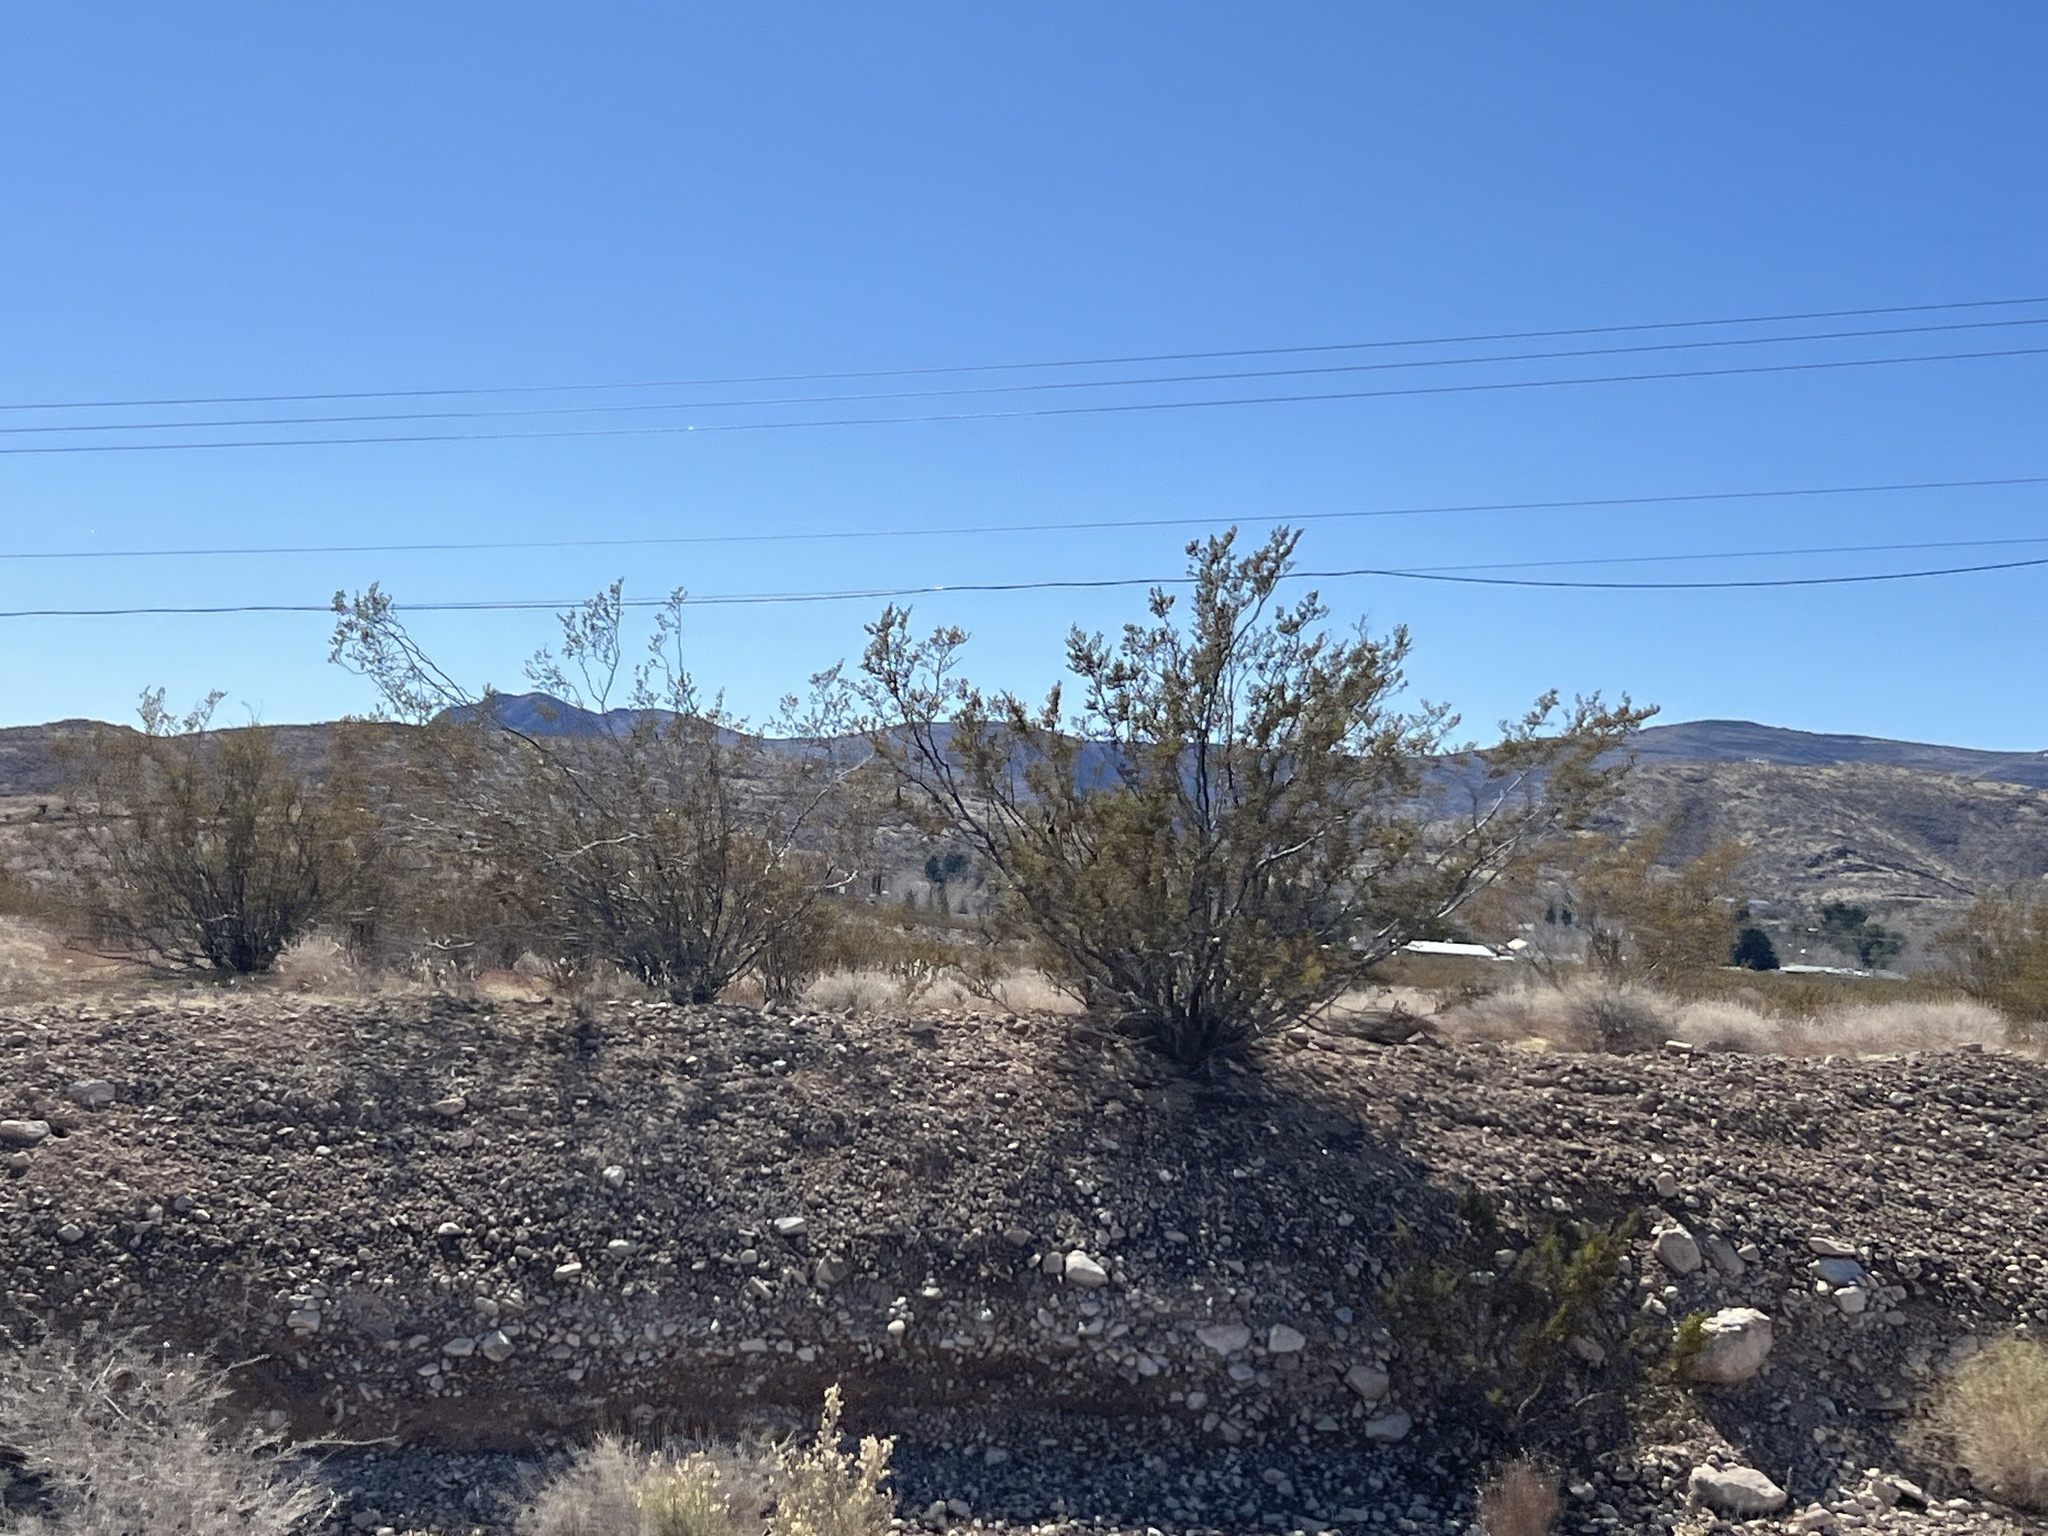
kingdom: Plantae
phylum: Tracheophyta
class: Magnoliopsida
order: Zygophyllales
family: Zygophyllaceae
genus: Larrea
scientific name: Larrea tridentata
